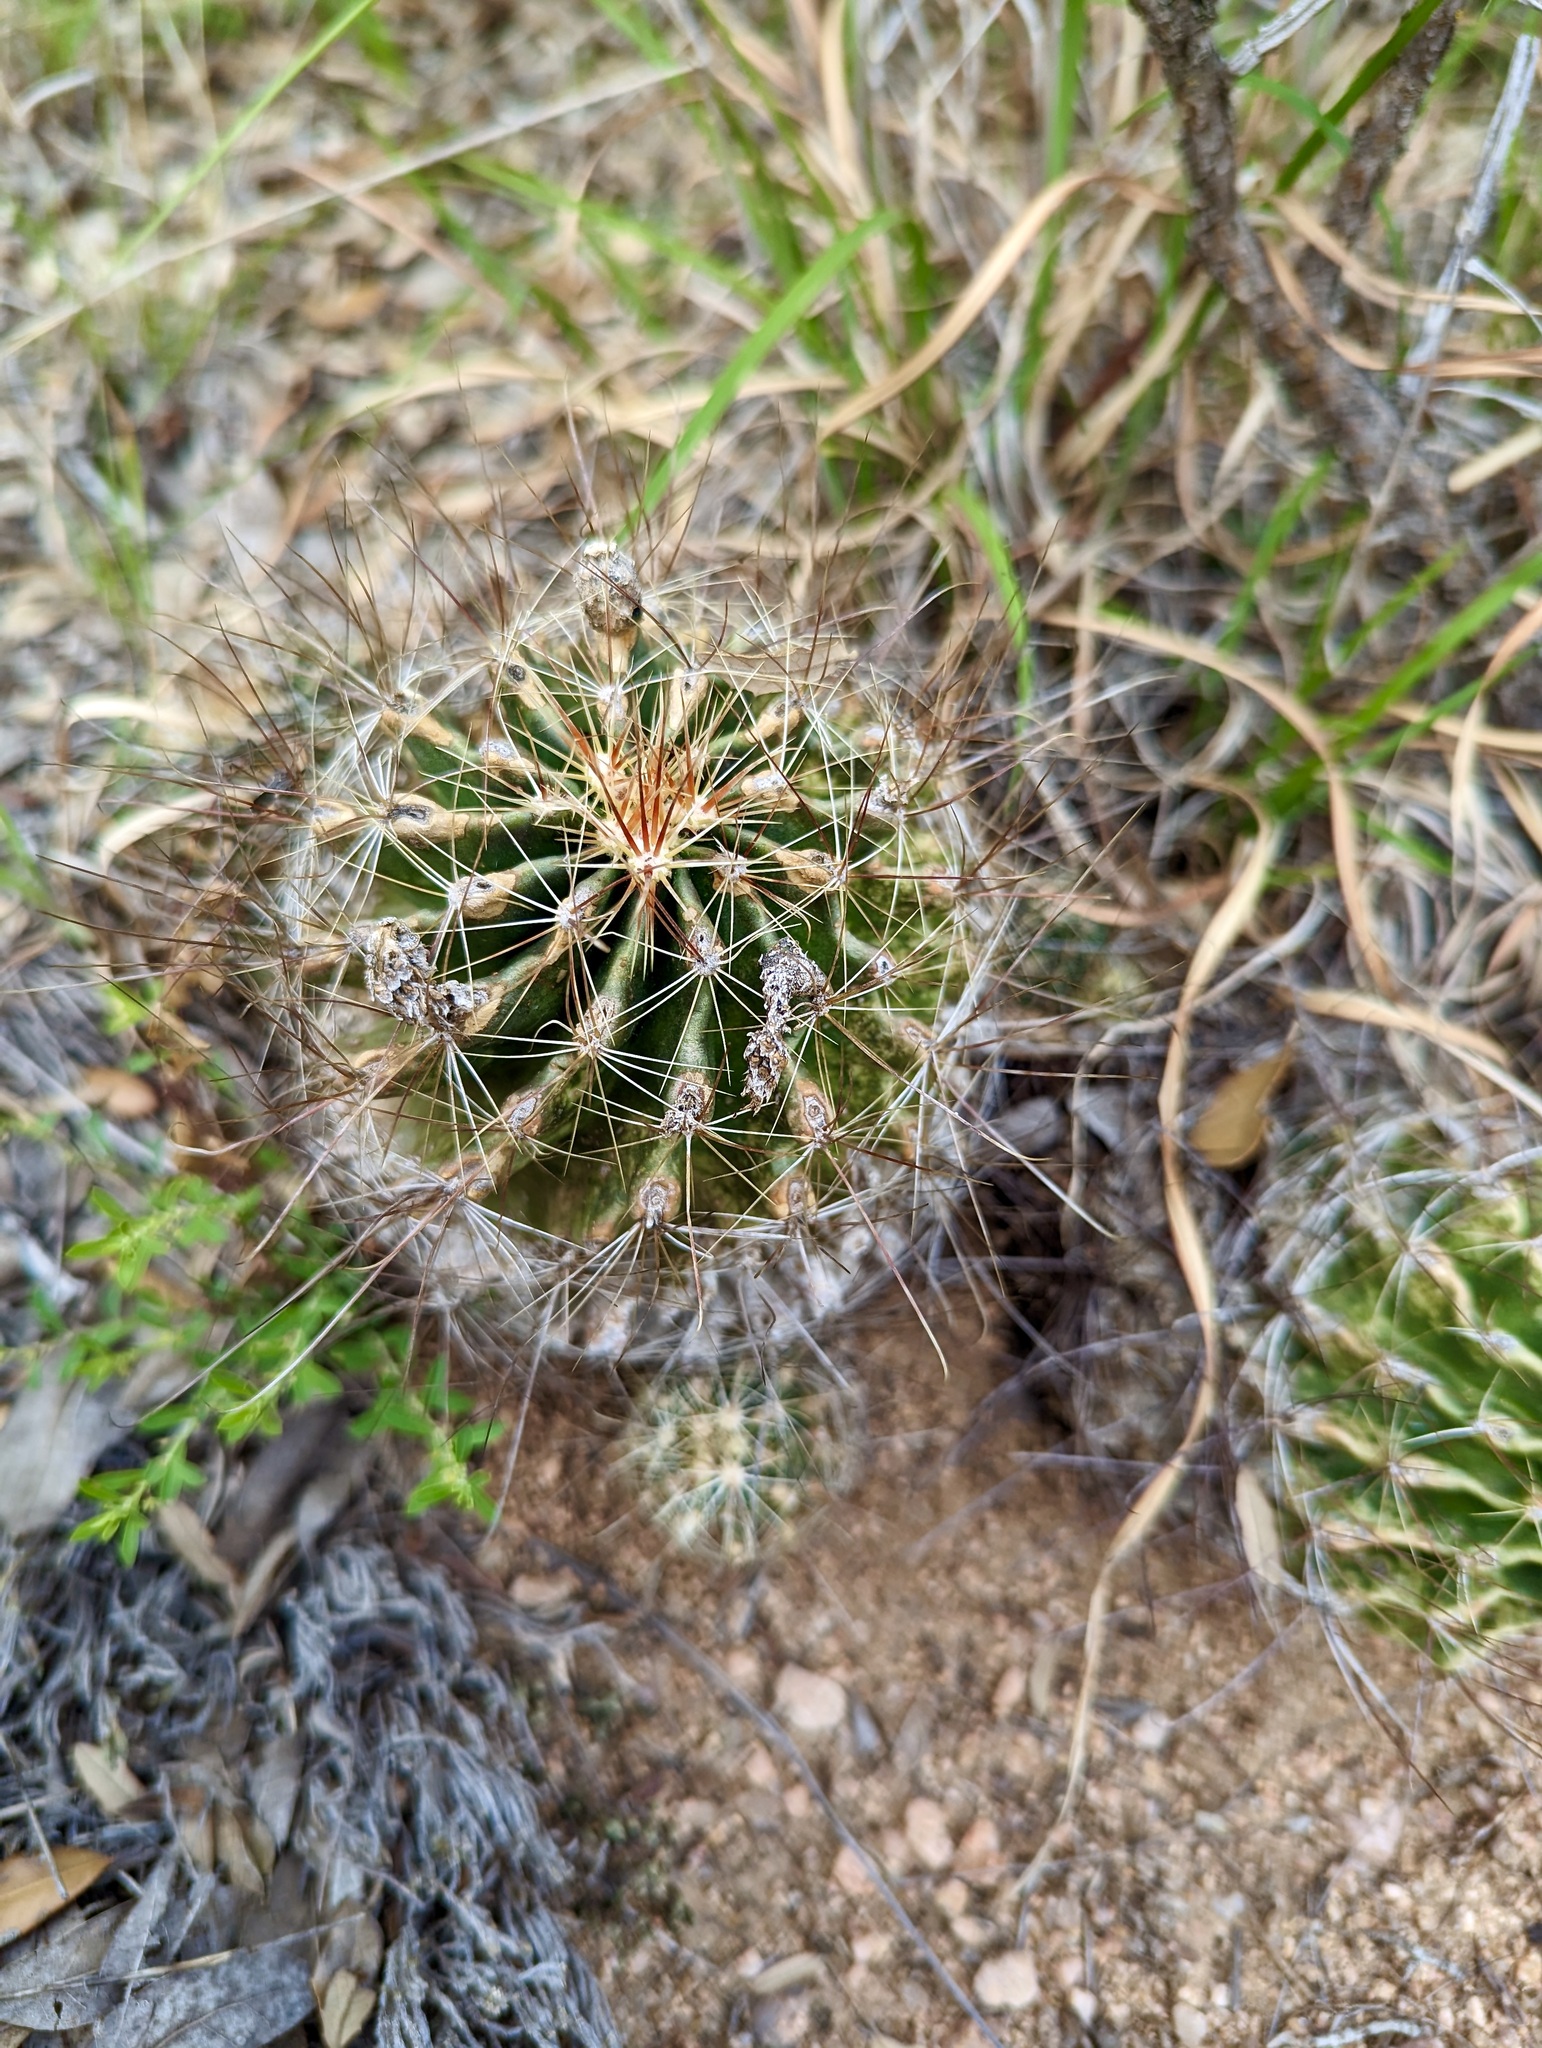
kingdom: Plantae
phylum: Tracheophyta
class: Magnoliopsida
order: Caryophyllales
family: Cactaceae
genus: Thelocactus
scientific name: Thelocactus setispinus
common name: Miniature barrel cactus
